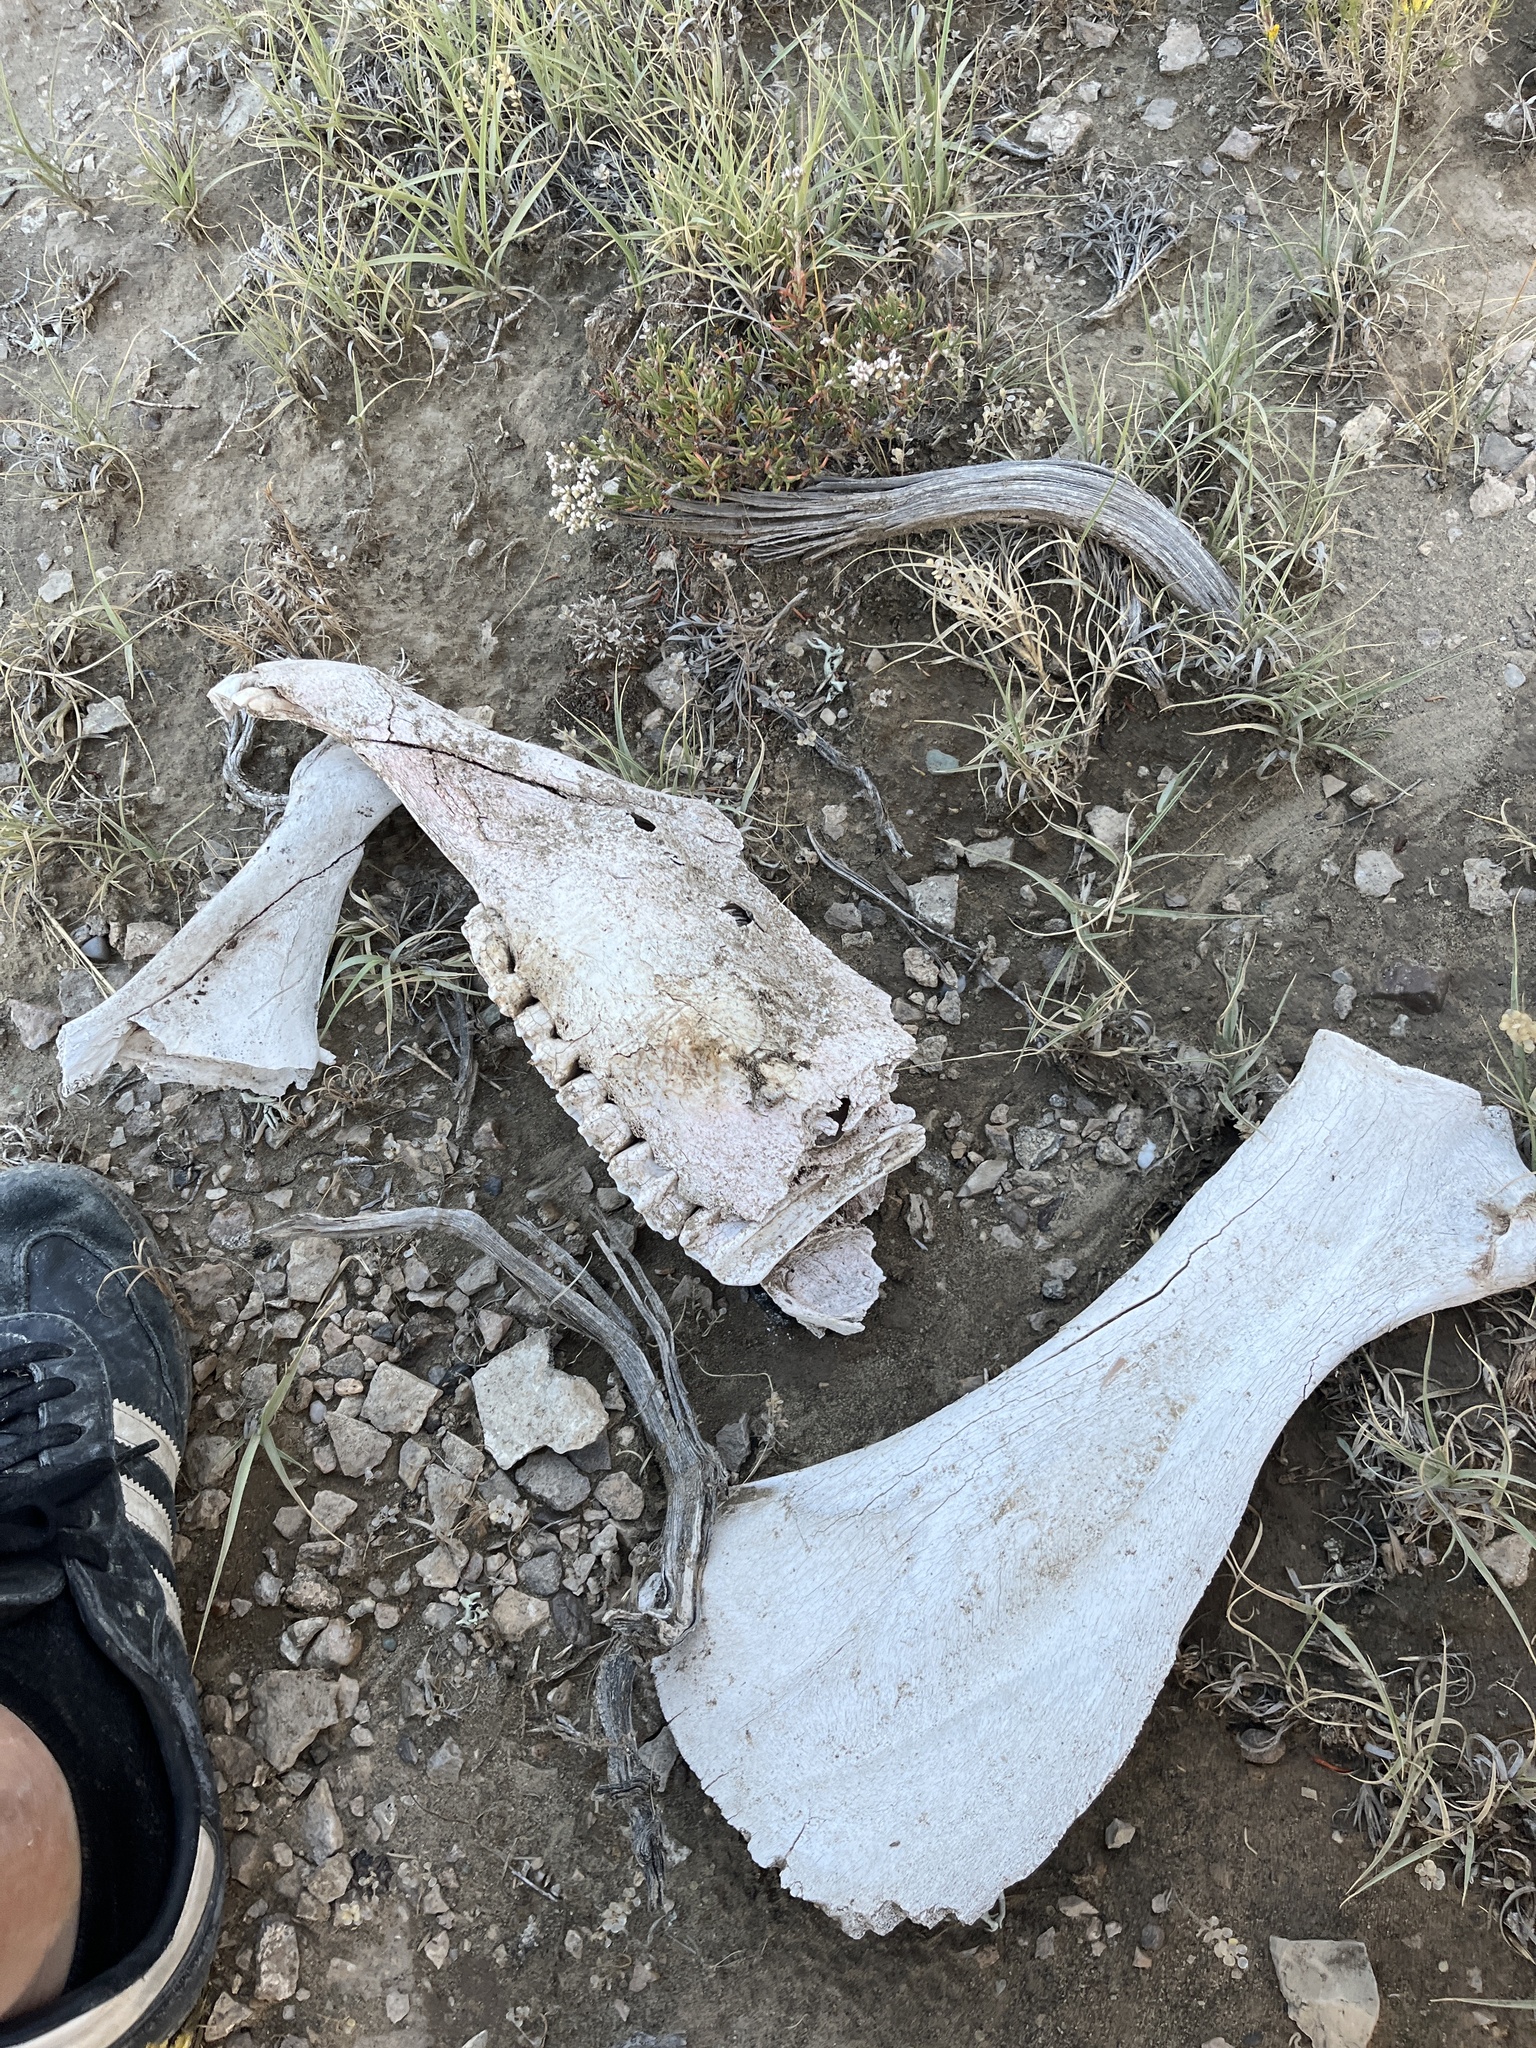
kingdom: Animalia
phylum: Chordata
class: Mammalia
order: Perissodactyla
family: Equidae
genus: Equus
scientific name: Equus caballus
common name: Horse
